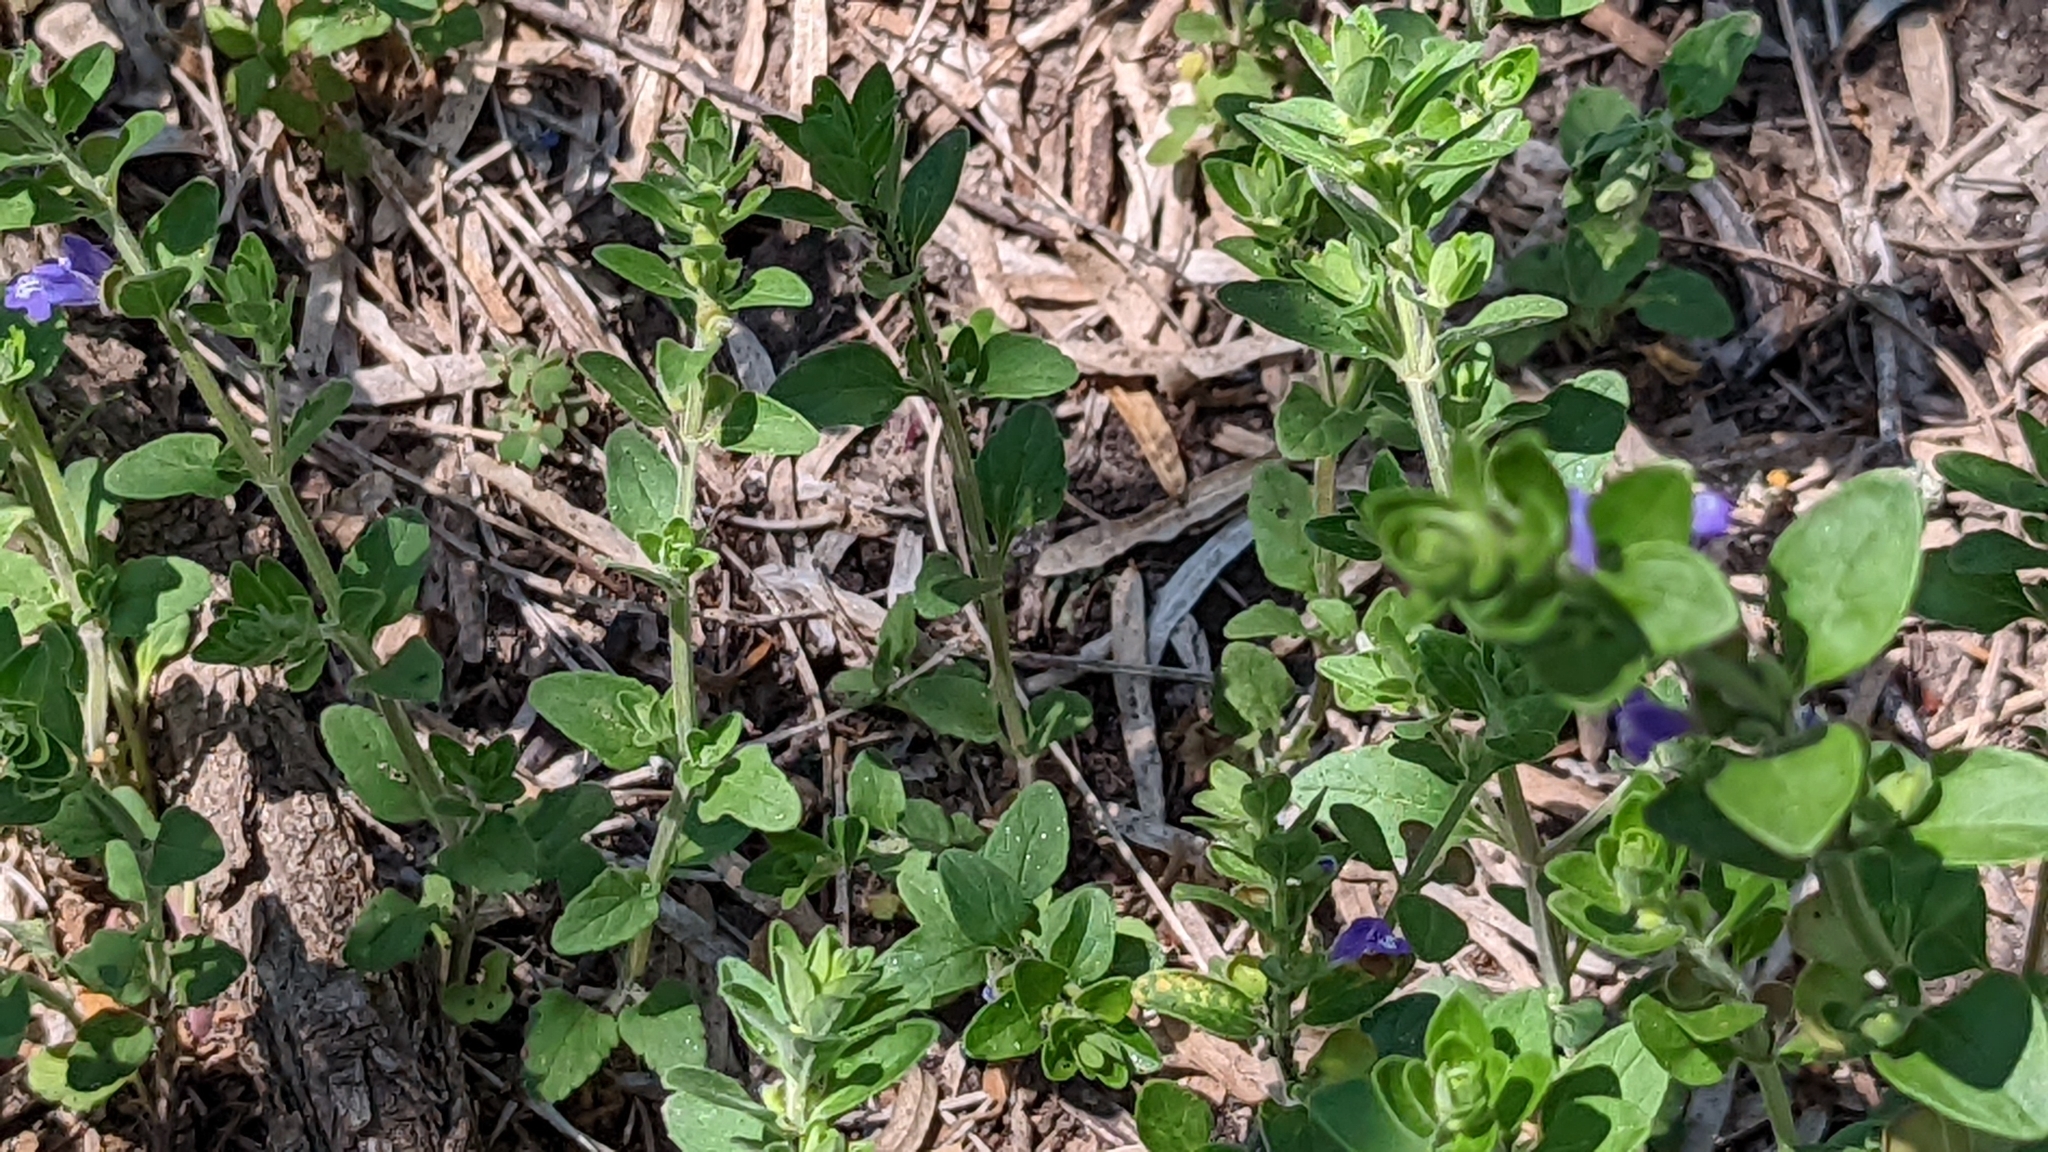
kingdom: Plantae
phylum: Tracheophyta
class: Magnoliopsida
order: Lamiales
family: Lamiaceae
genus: Scutellaria
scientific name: Scutellaria drummondii
